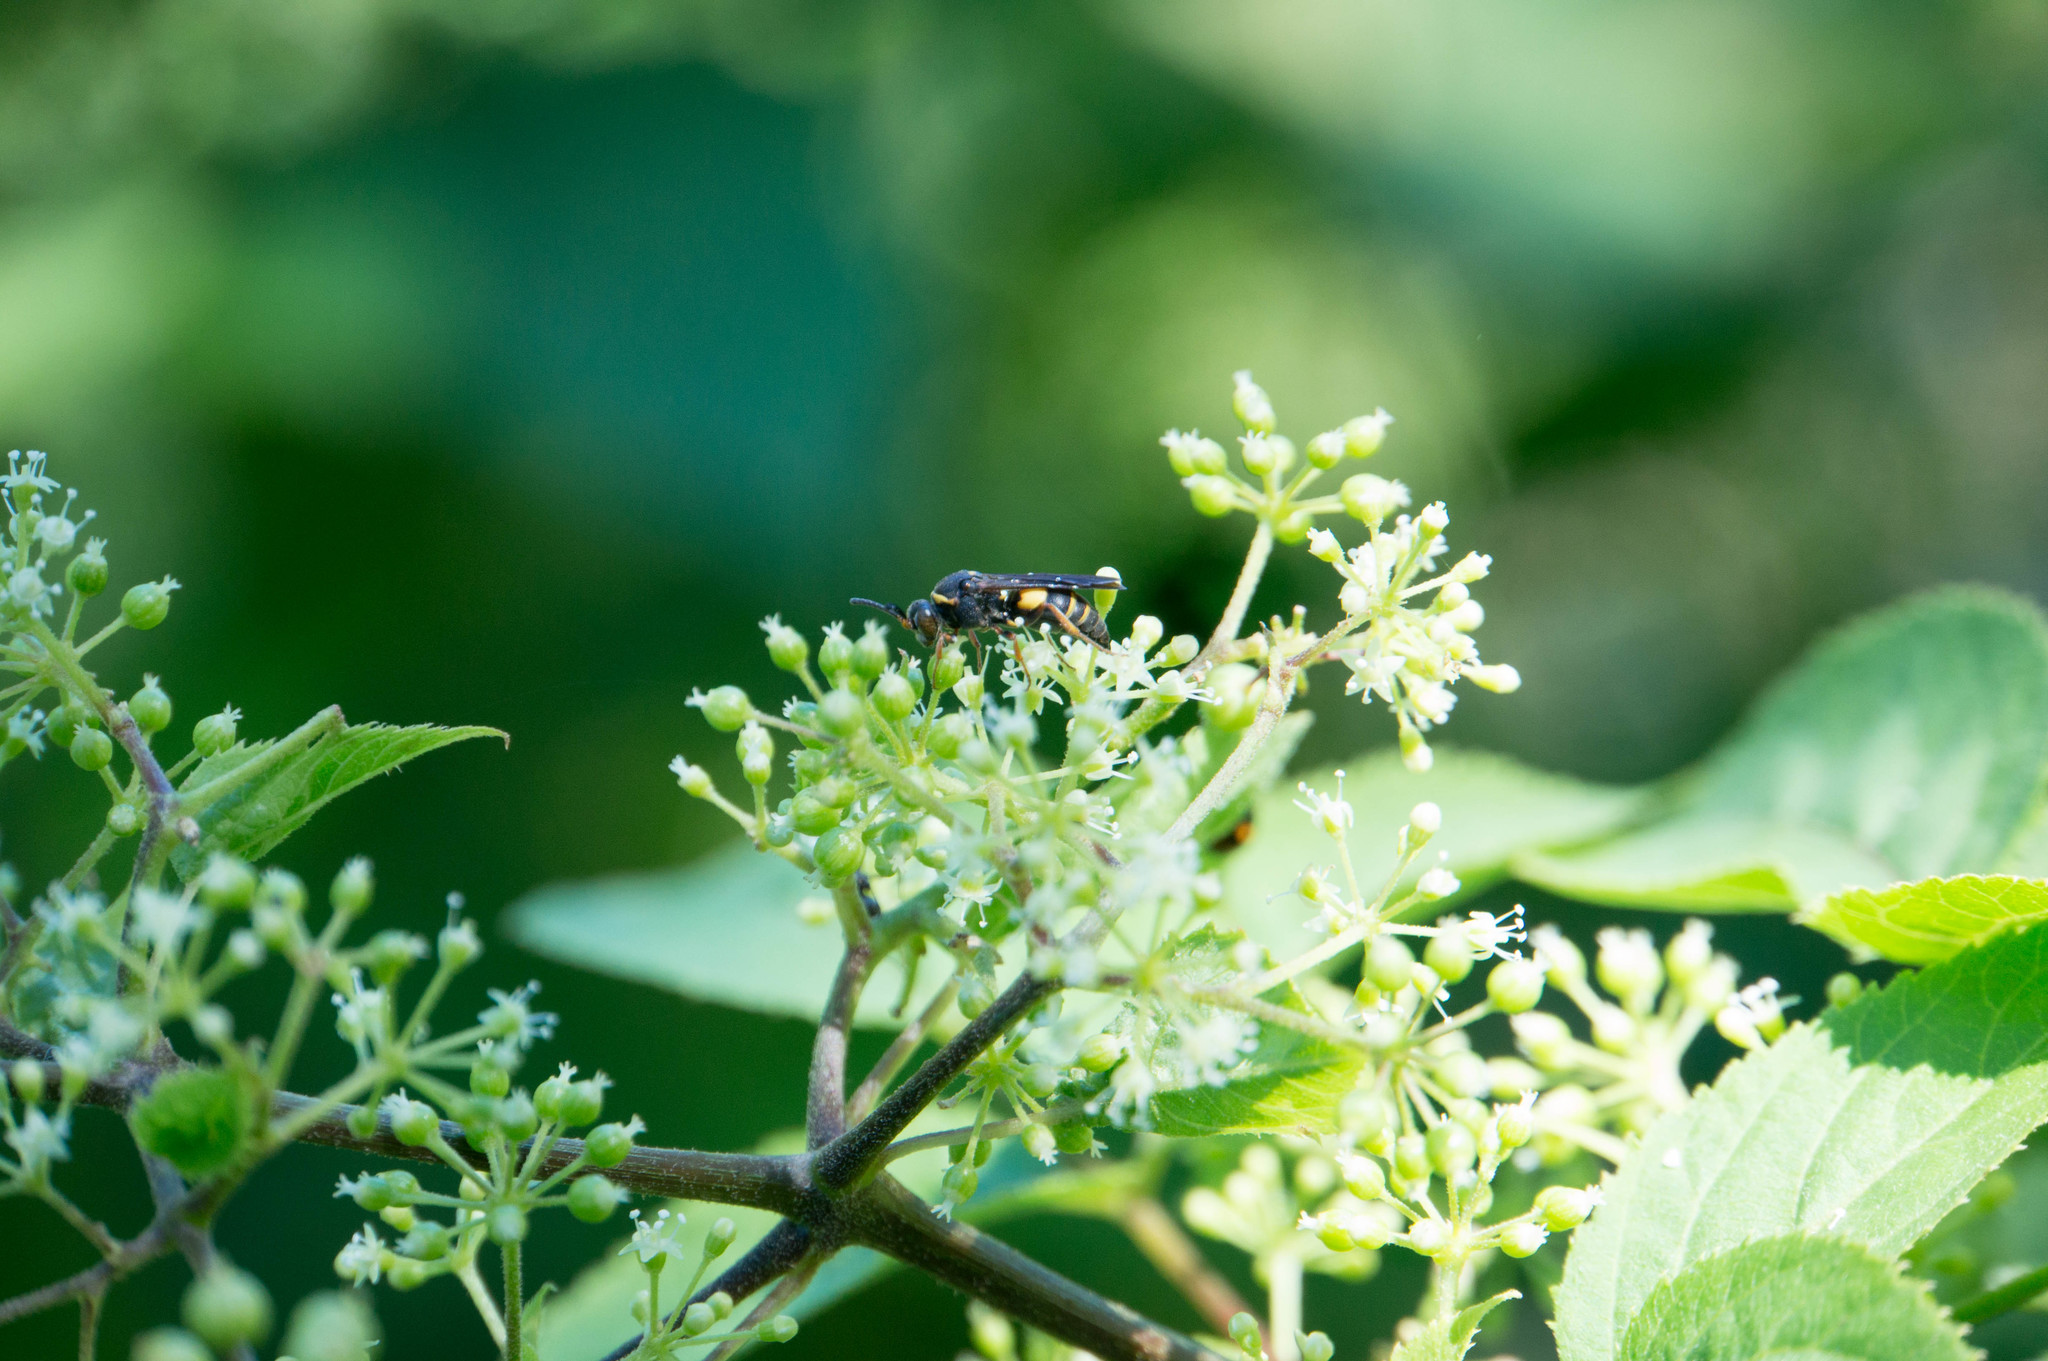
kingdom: Animalia
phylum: Arthropoda
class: Insecta
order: Hymenoptera
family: Crabronidae
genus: Nysson
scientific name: Nysson plagiatus
